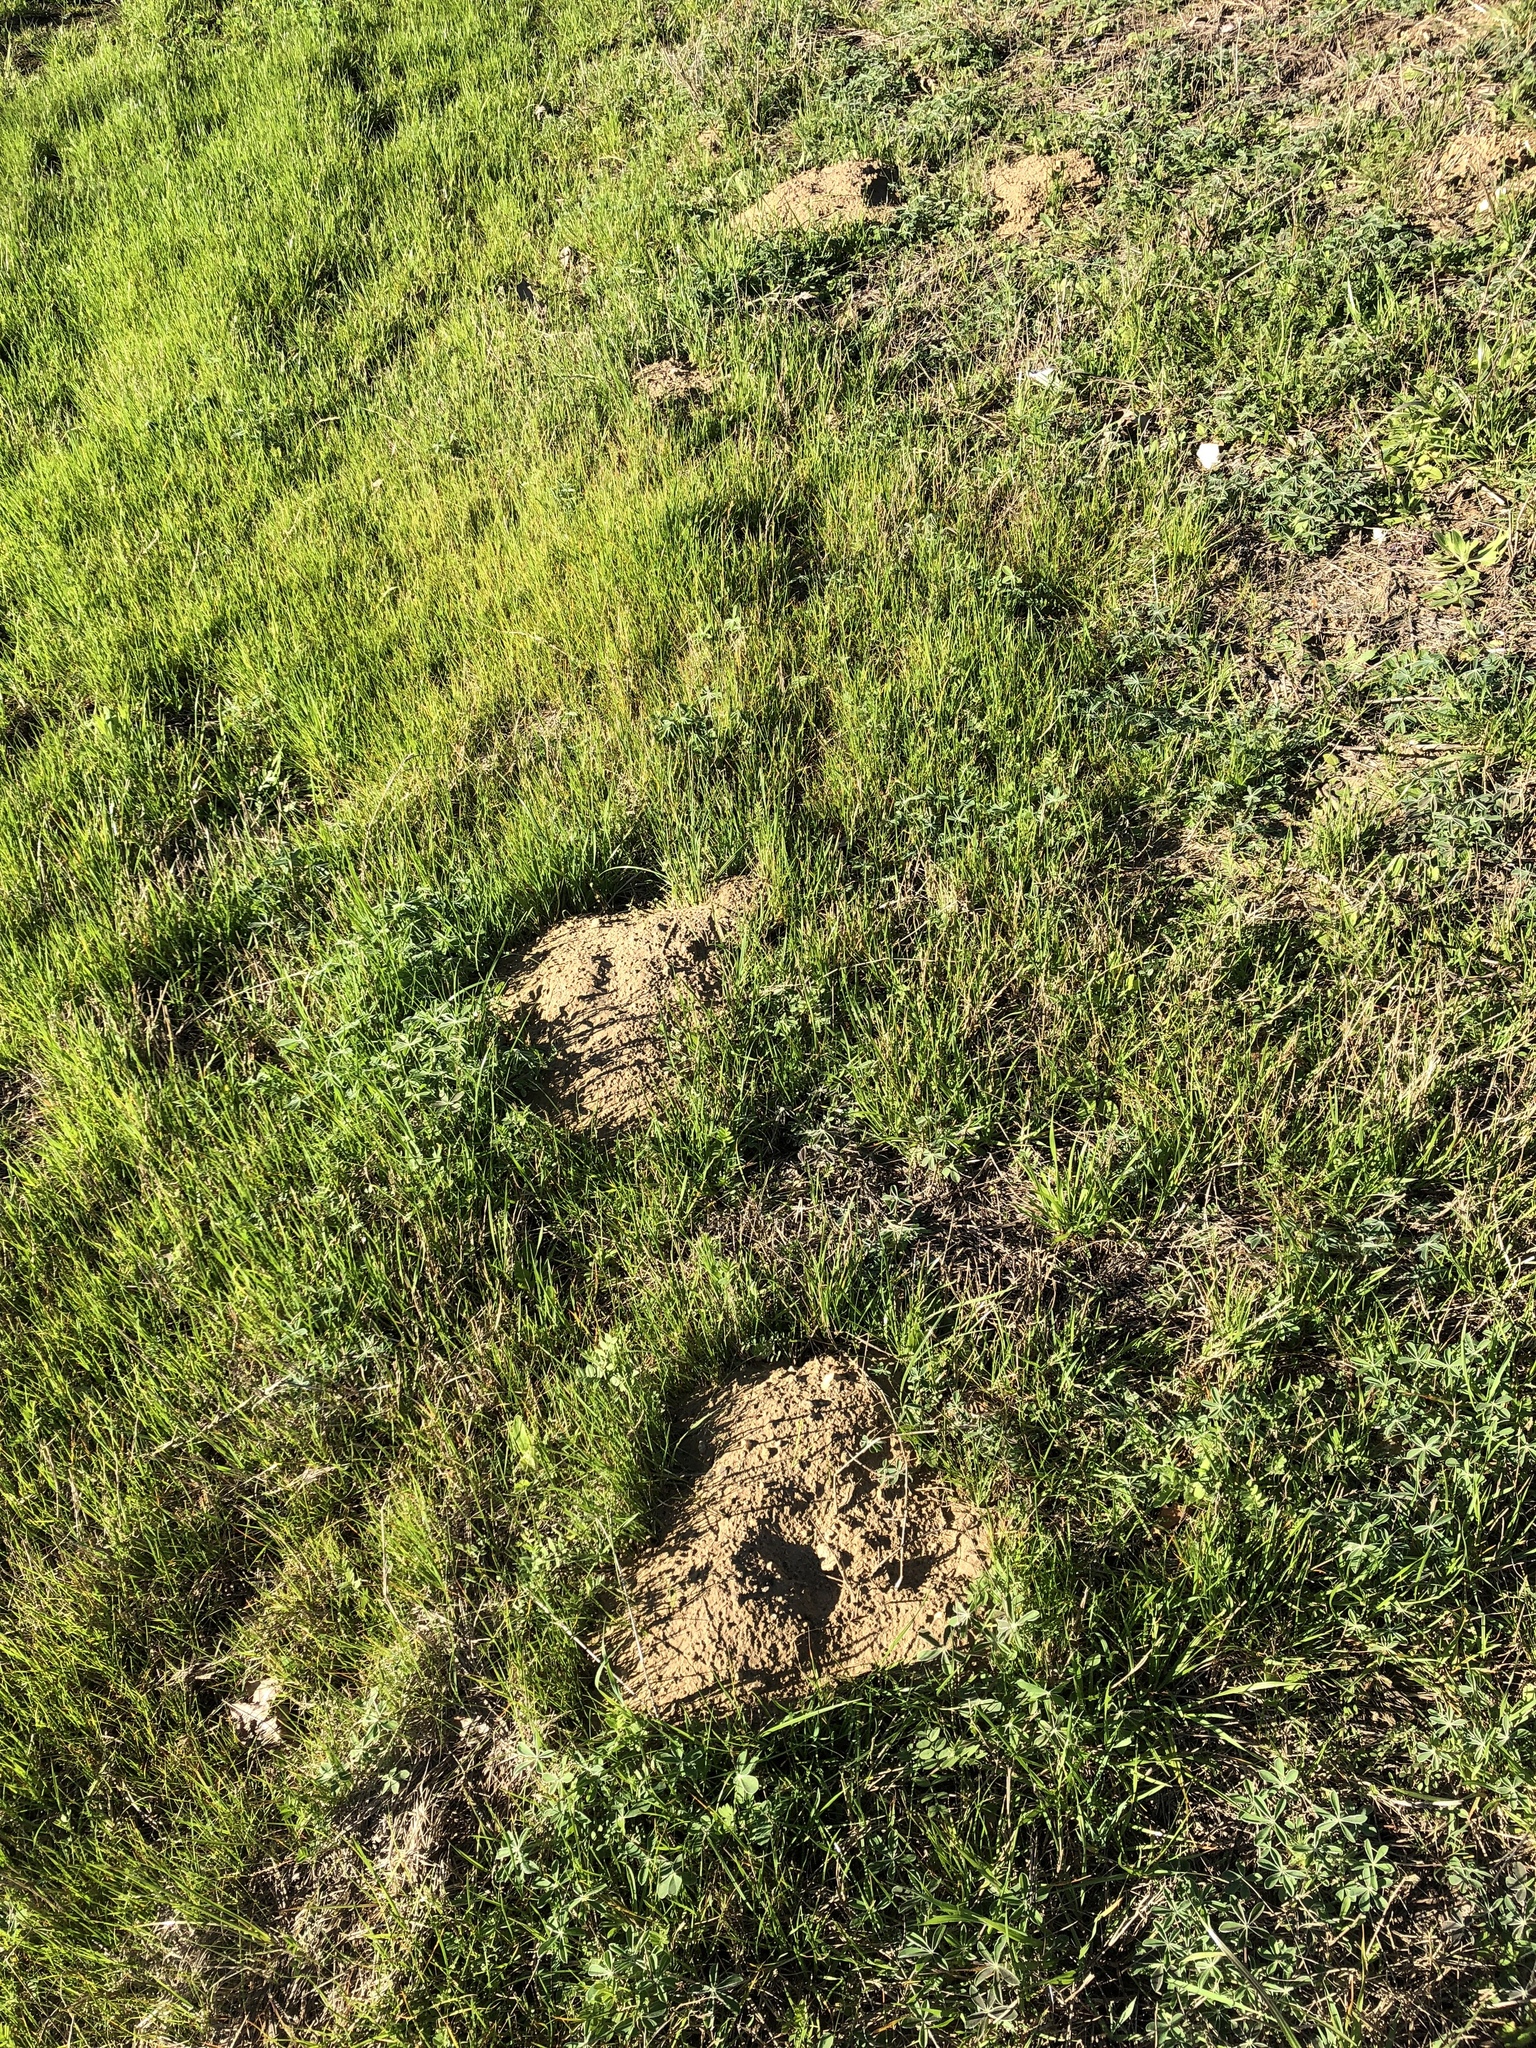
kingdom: Animalia
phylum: Chordata
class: Mammalia
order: Rodentia
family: Geomyidae
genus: Geomys
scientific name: Geomys breviceps
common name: Baird's pocket gopher
